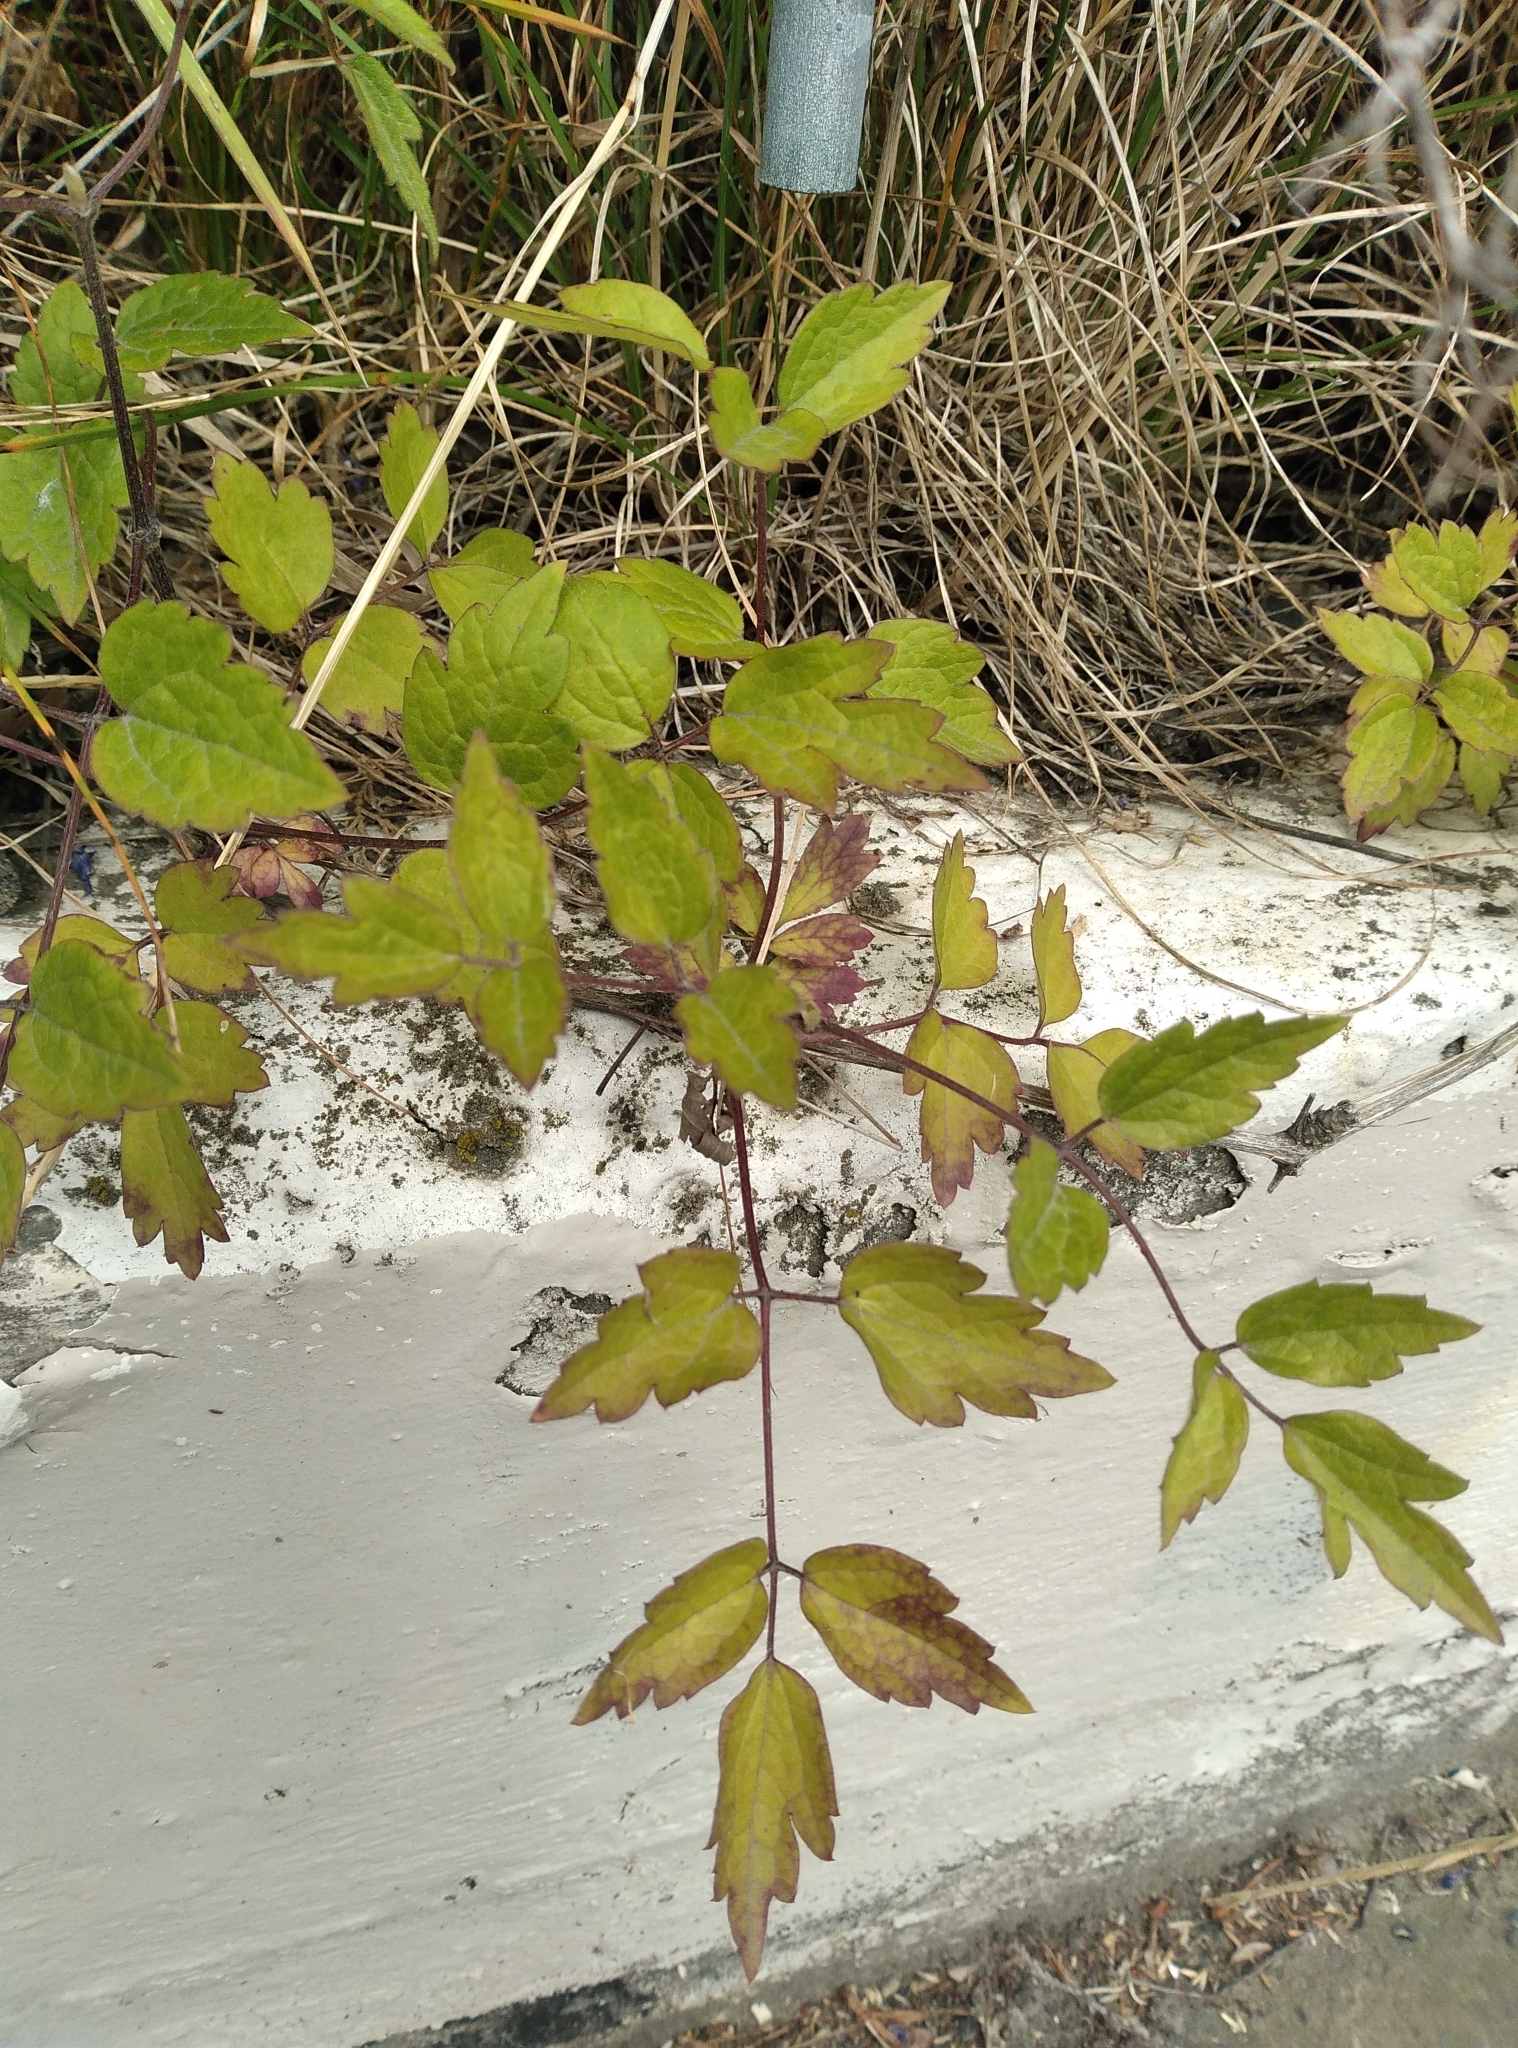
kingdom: Plantae
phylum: Tracheophyta
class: Magnoliopsida
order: Ranunculales
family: Ranunculaceae
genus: Clematis
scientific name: Clematis vitalba
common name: Evergreen clematis
